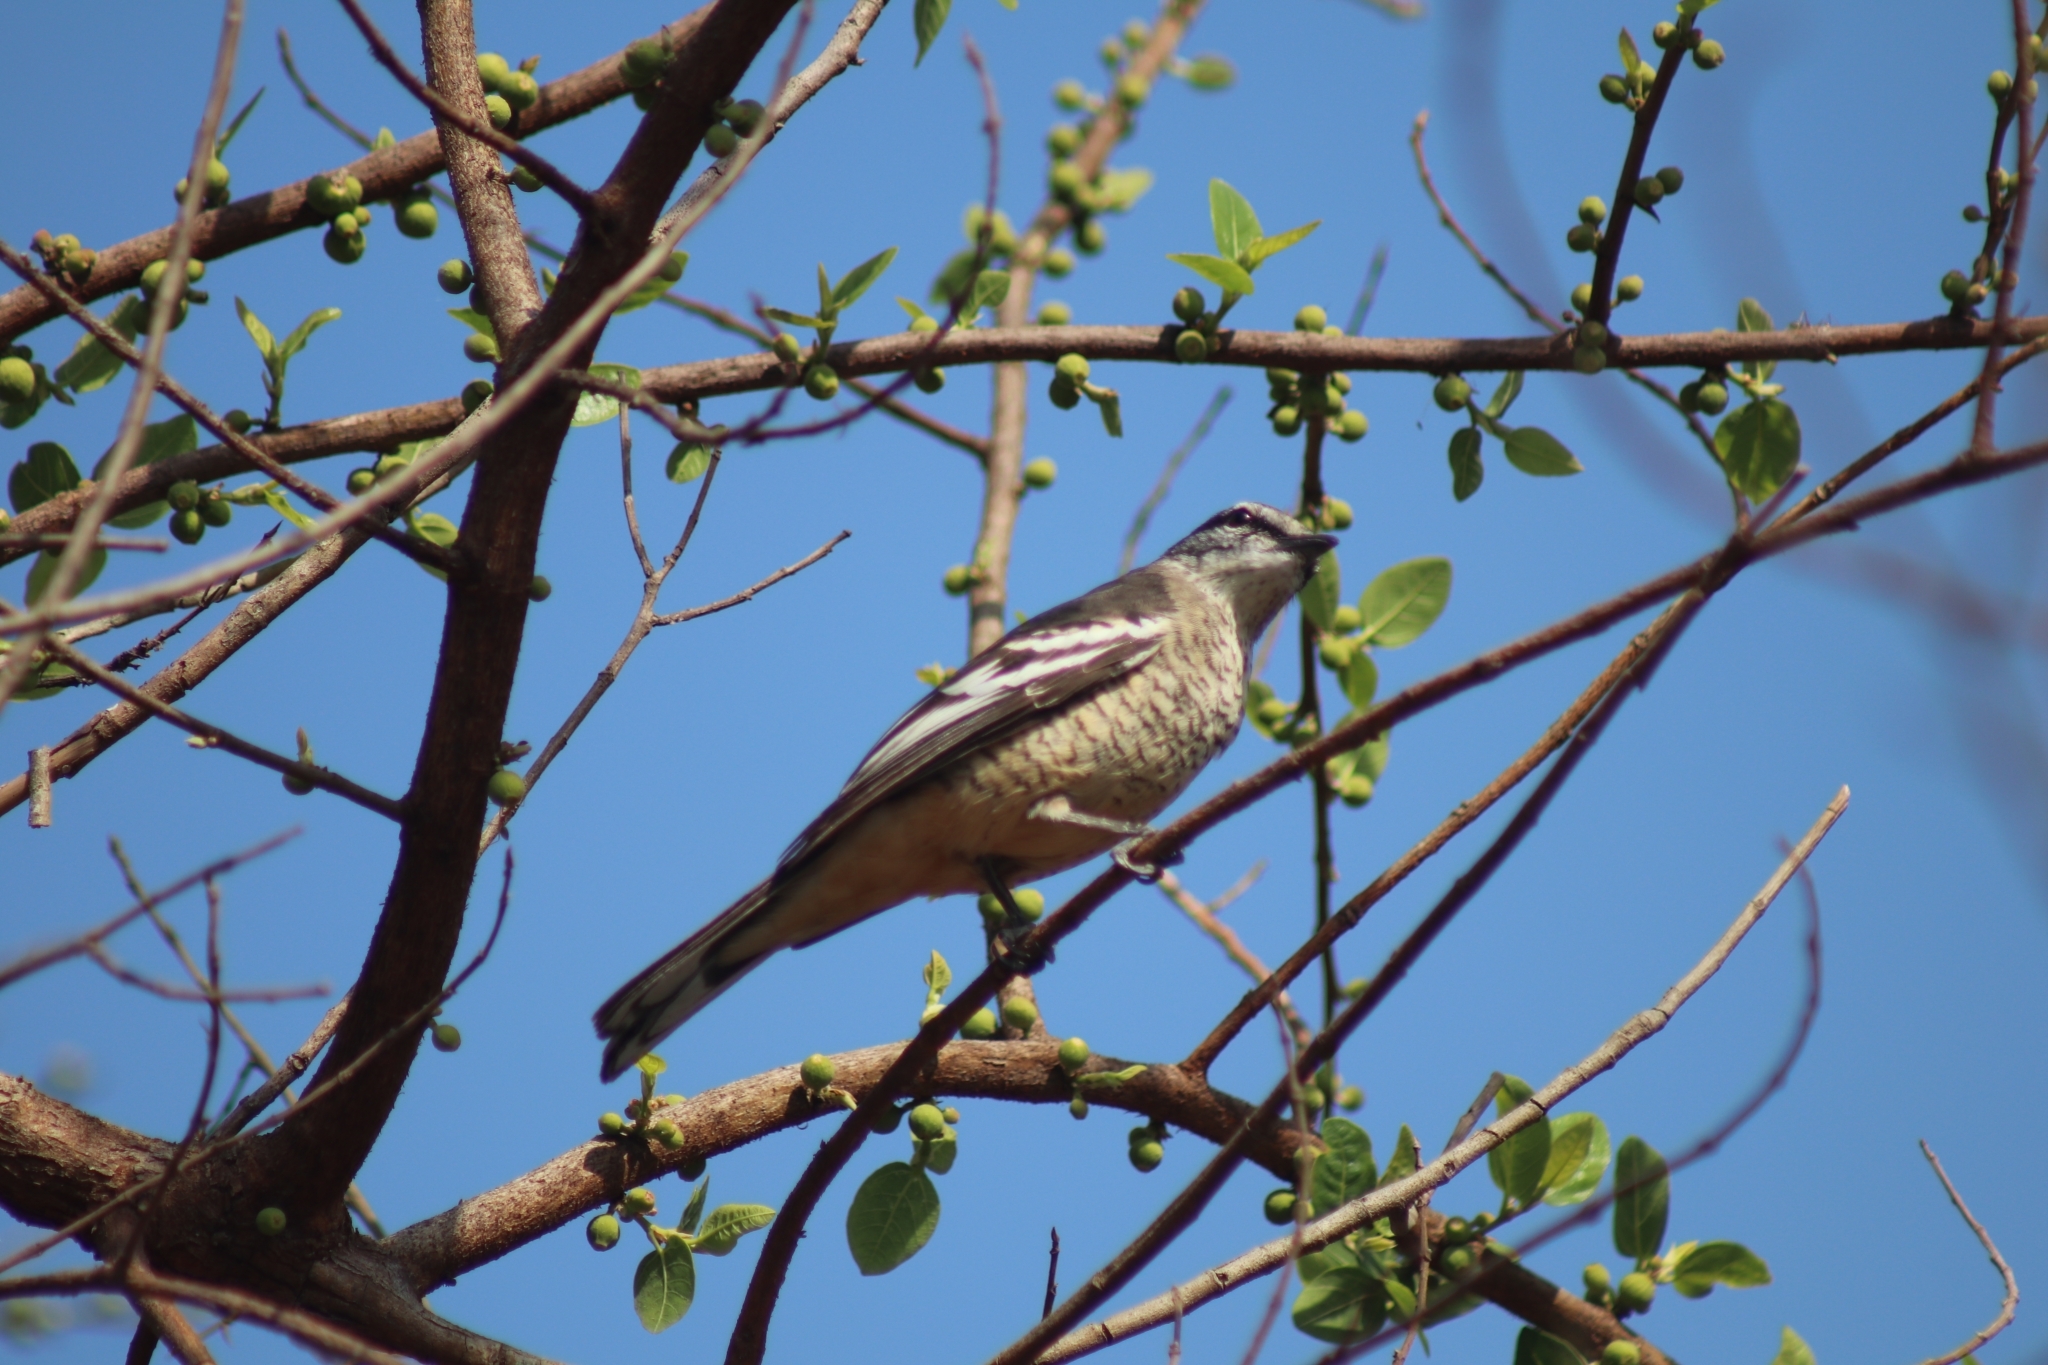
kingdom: Animalia
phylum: Chordata
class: Aves
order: Passeriformes
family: Campephagidae
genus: Lalage
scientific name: Lalage leucomela
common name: Varied triller
